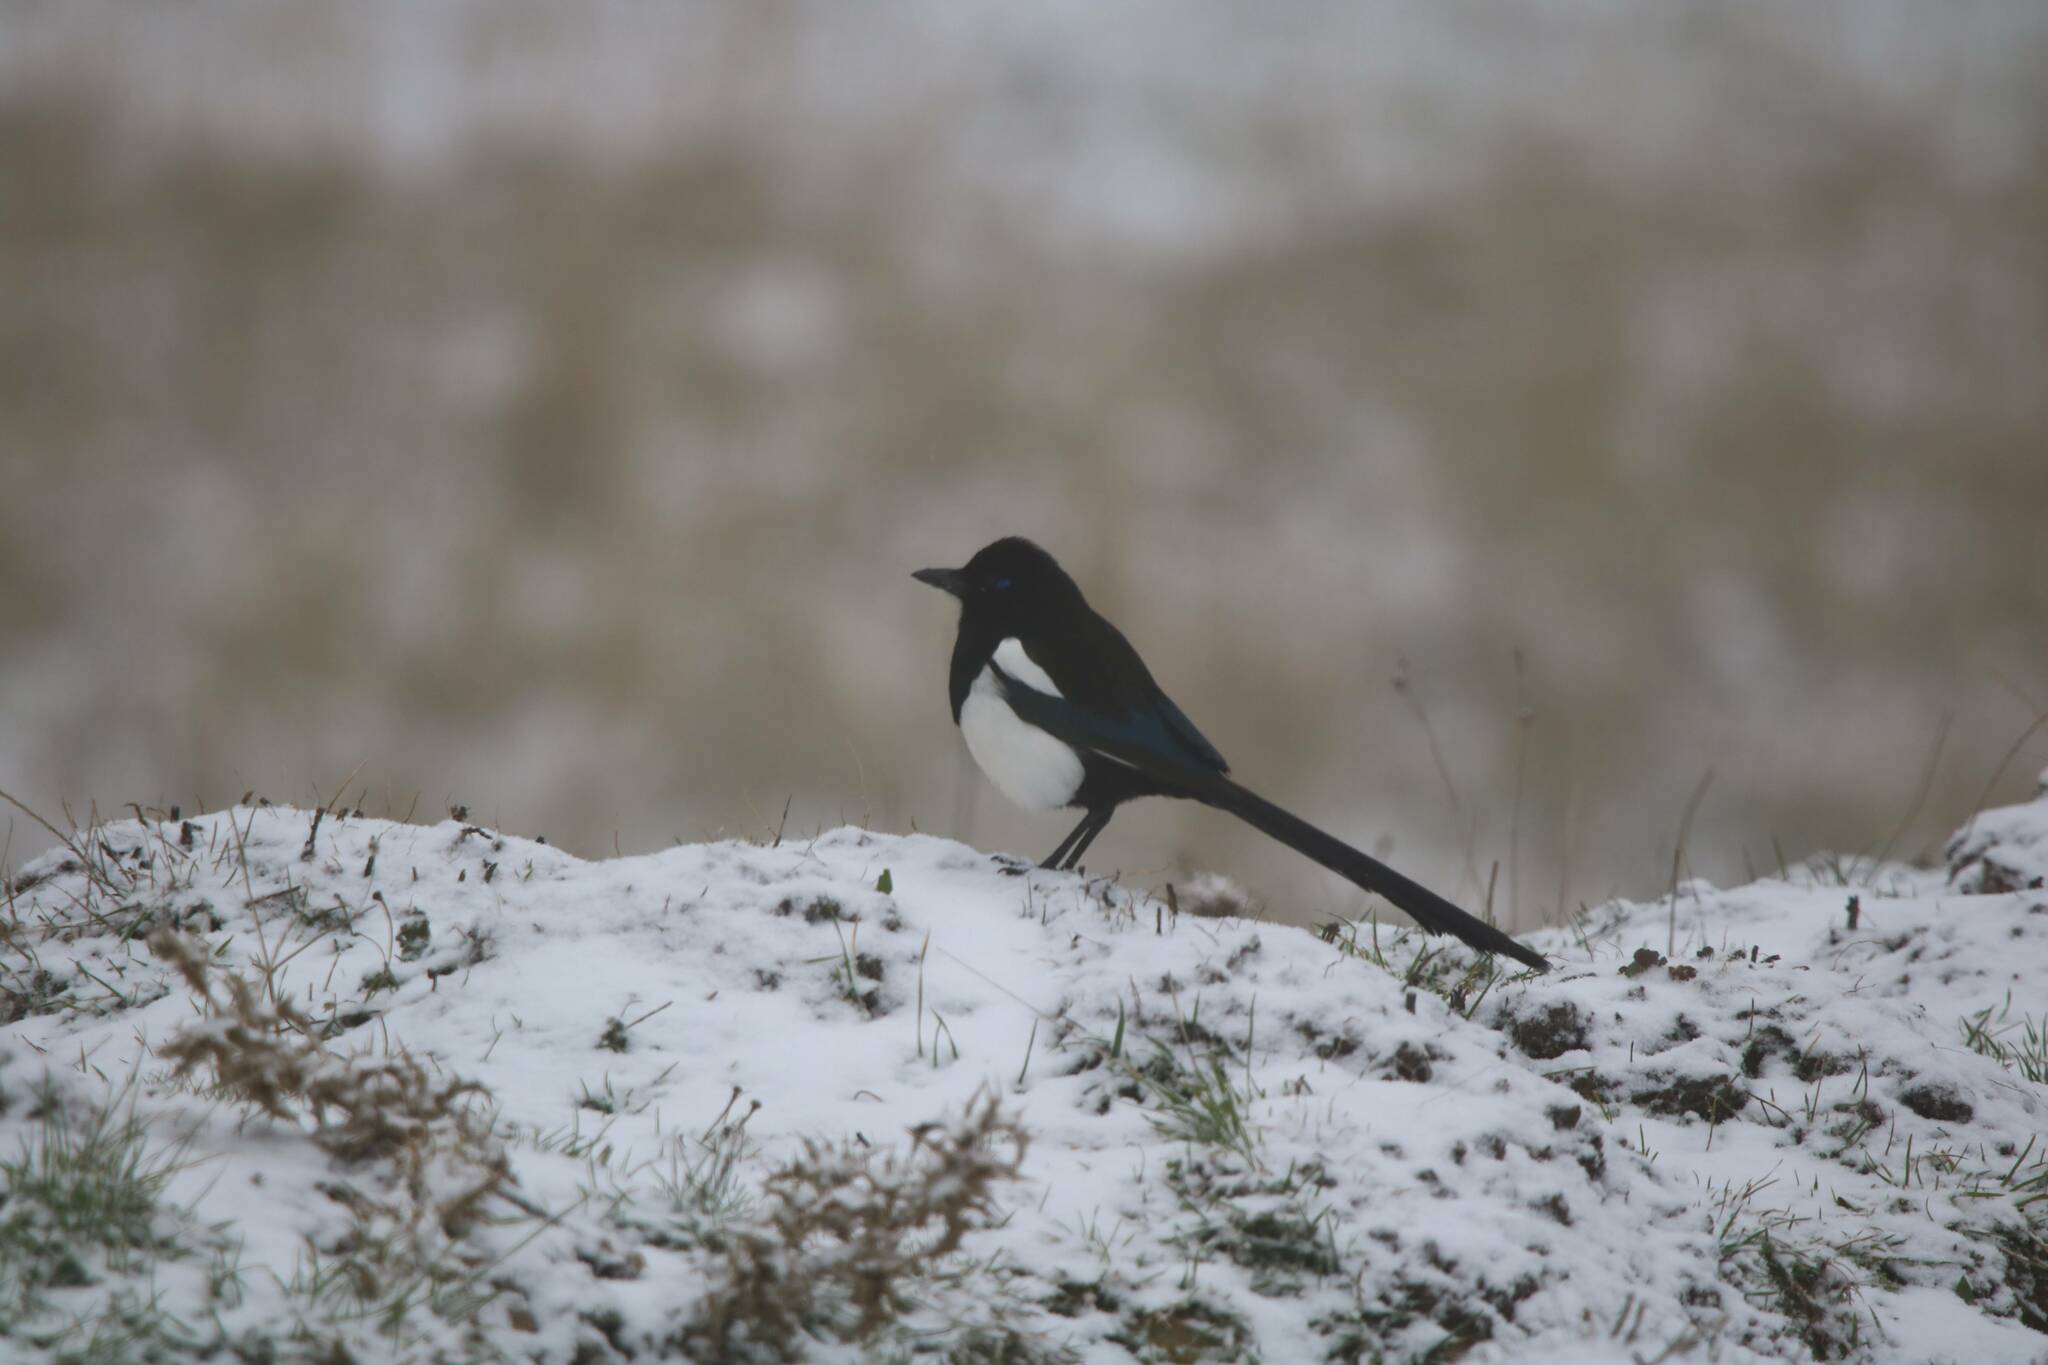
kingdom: Animalia
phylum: Chordata
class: Aves
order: Passeriformes
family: Corvidae
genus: Pica
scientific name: Pica mauritanica
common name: Maghreb magpie
